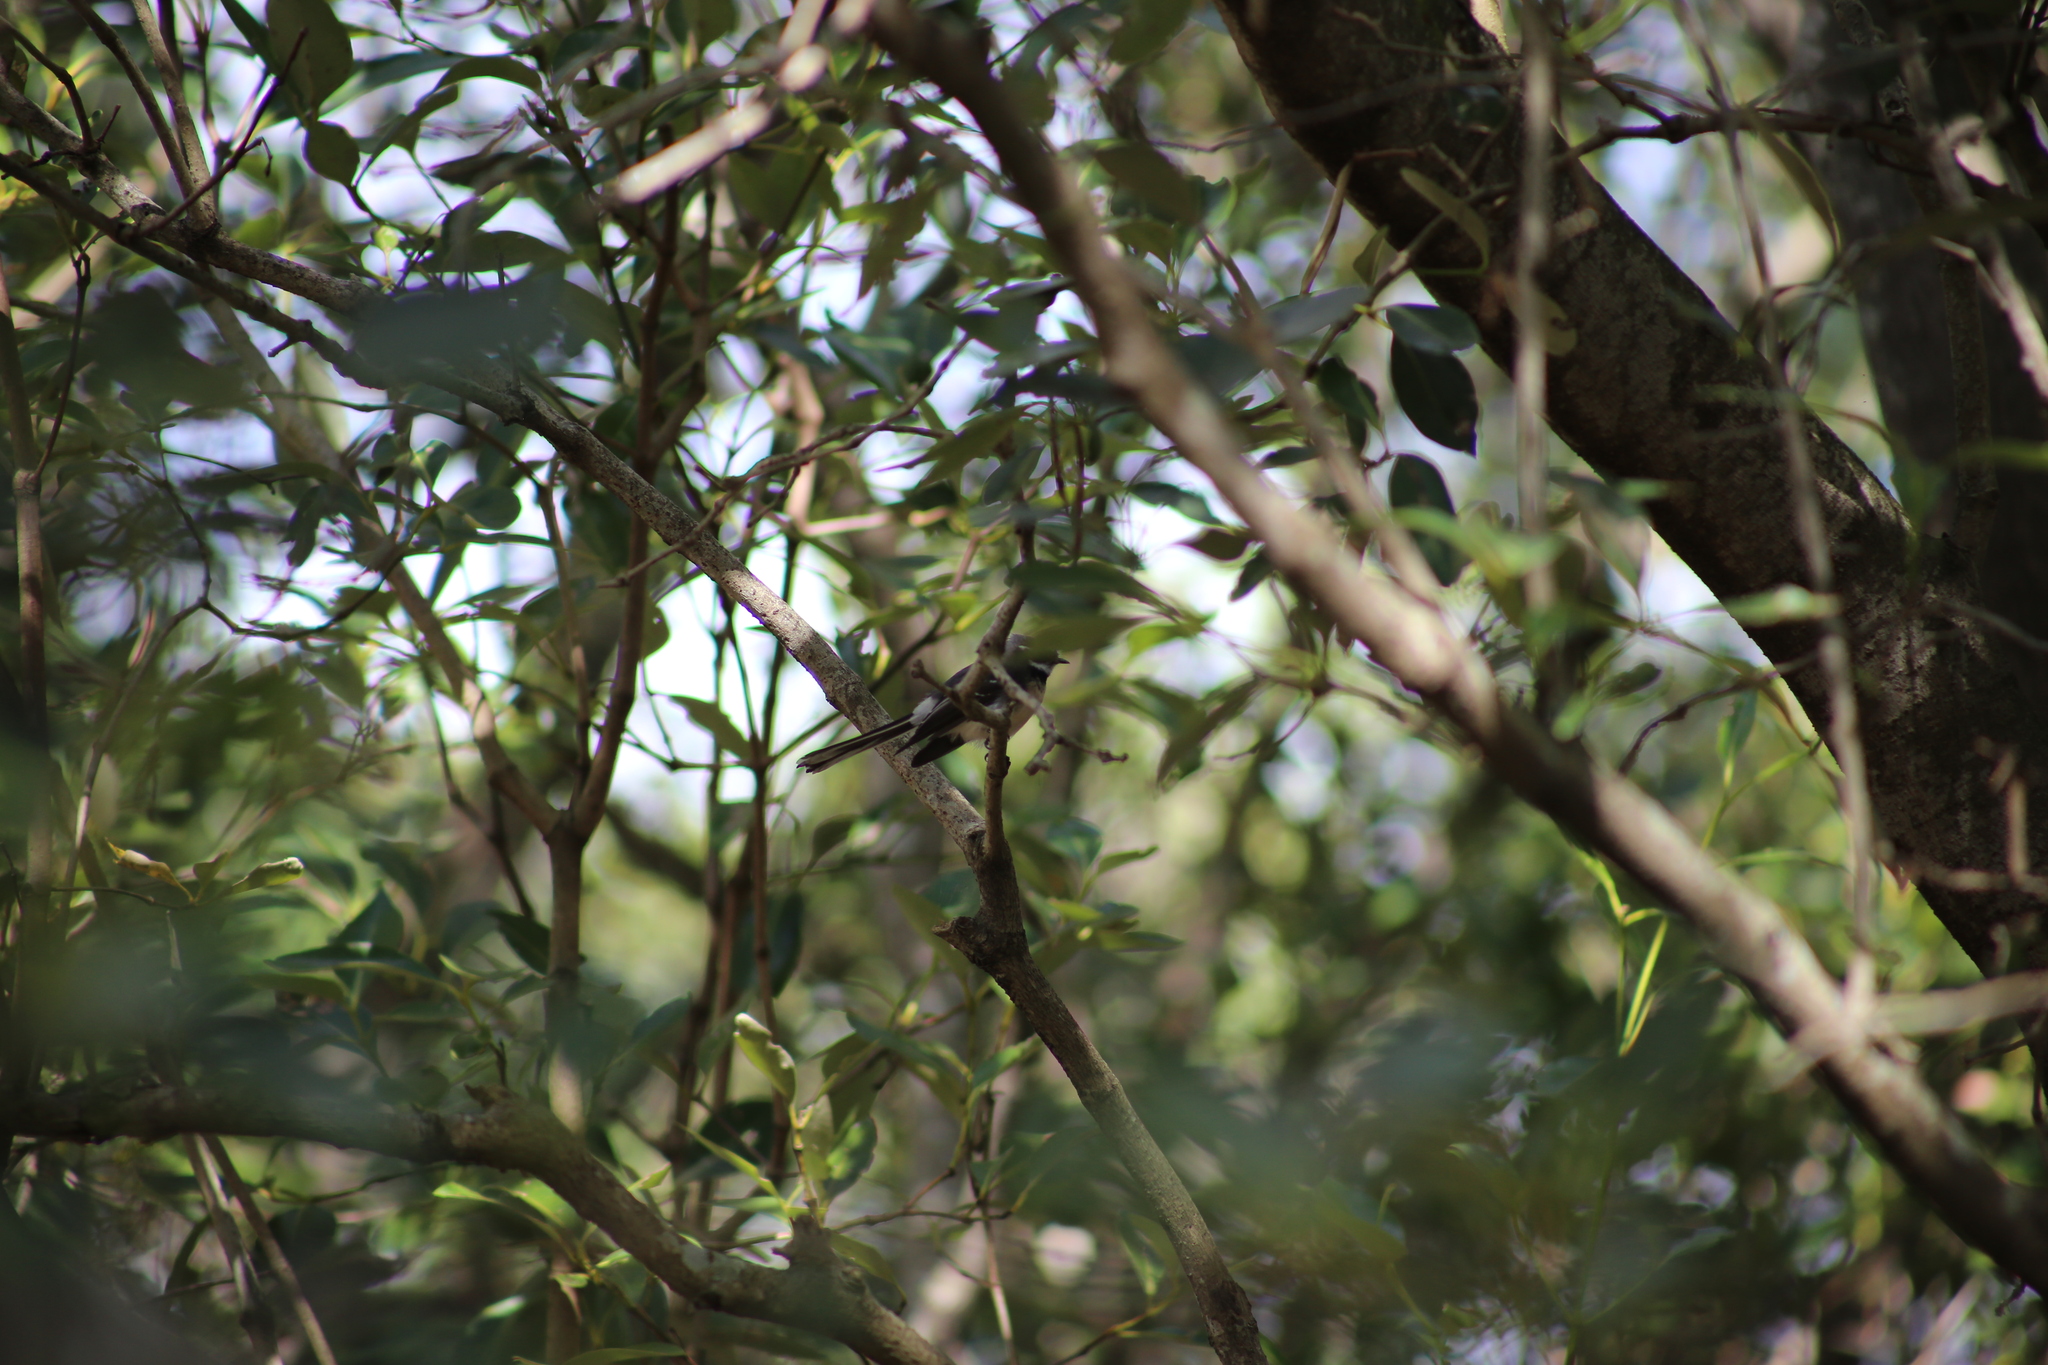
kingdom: Animalia
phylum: Chordata
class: Aves
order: Passeriformes
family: Rhipiduridae
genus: Rhipidura
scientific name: Rhipidura albiscapa
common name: Grey fantail
